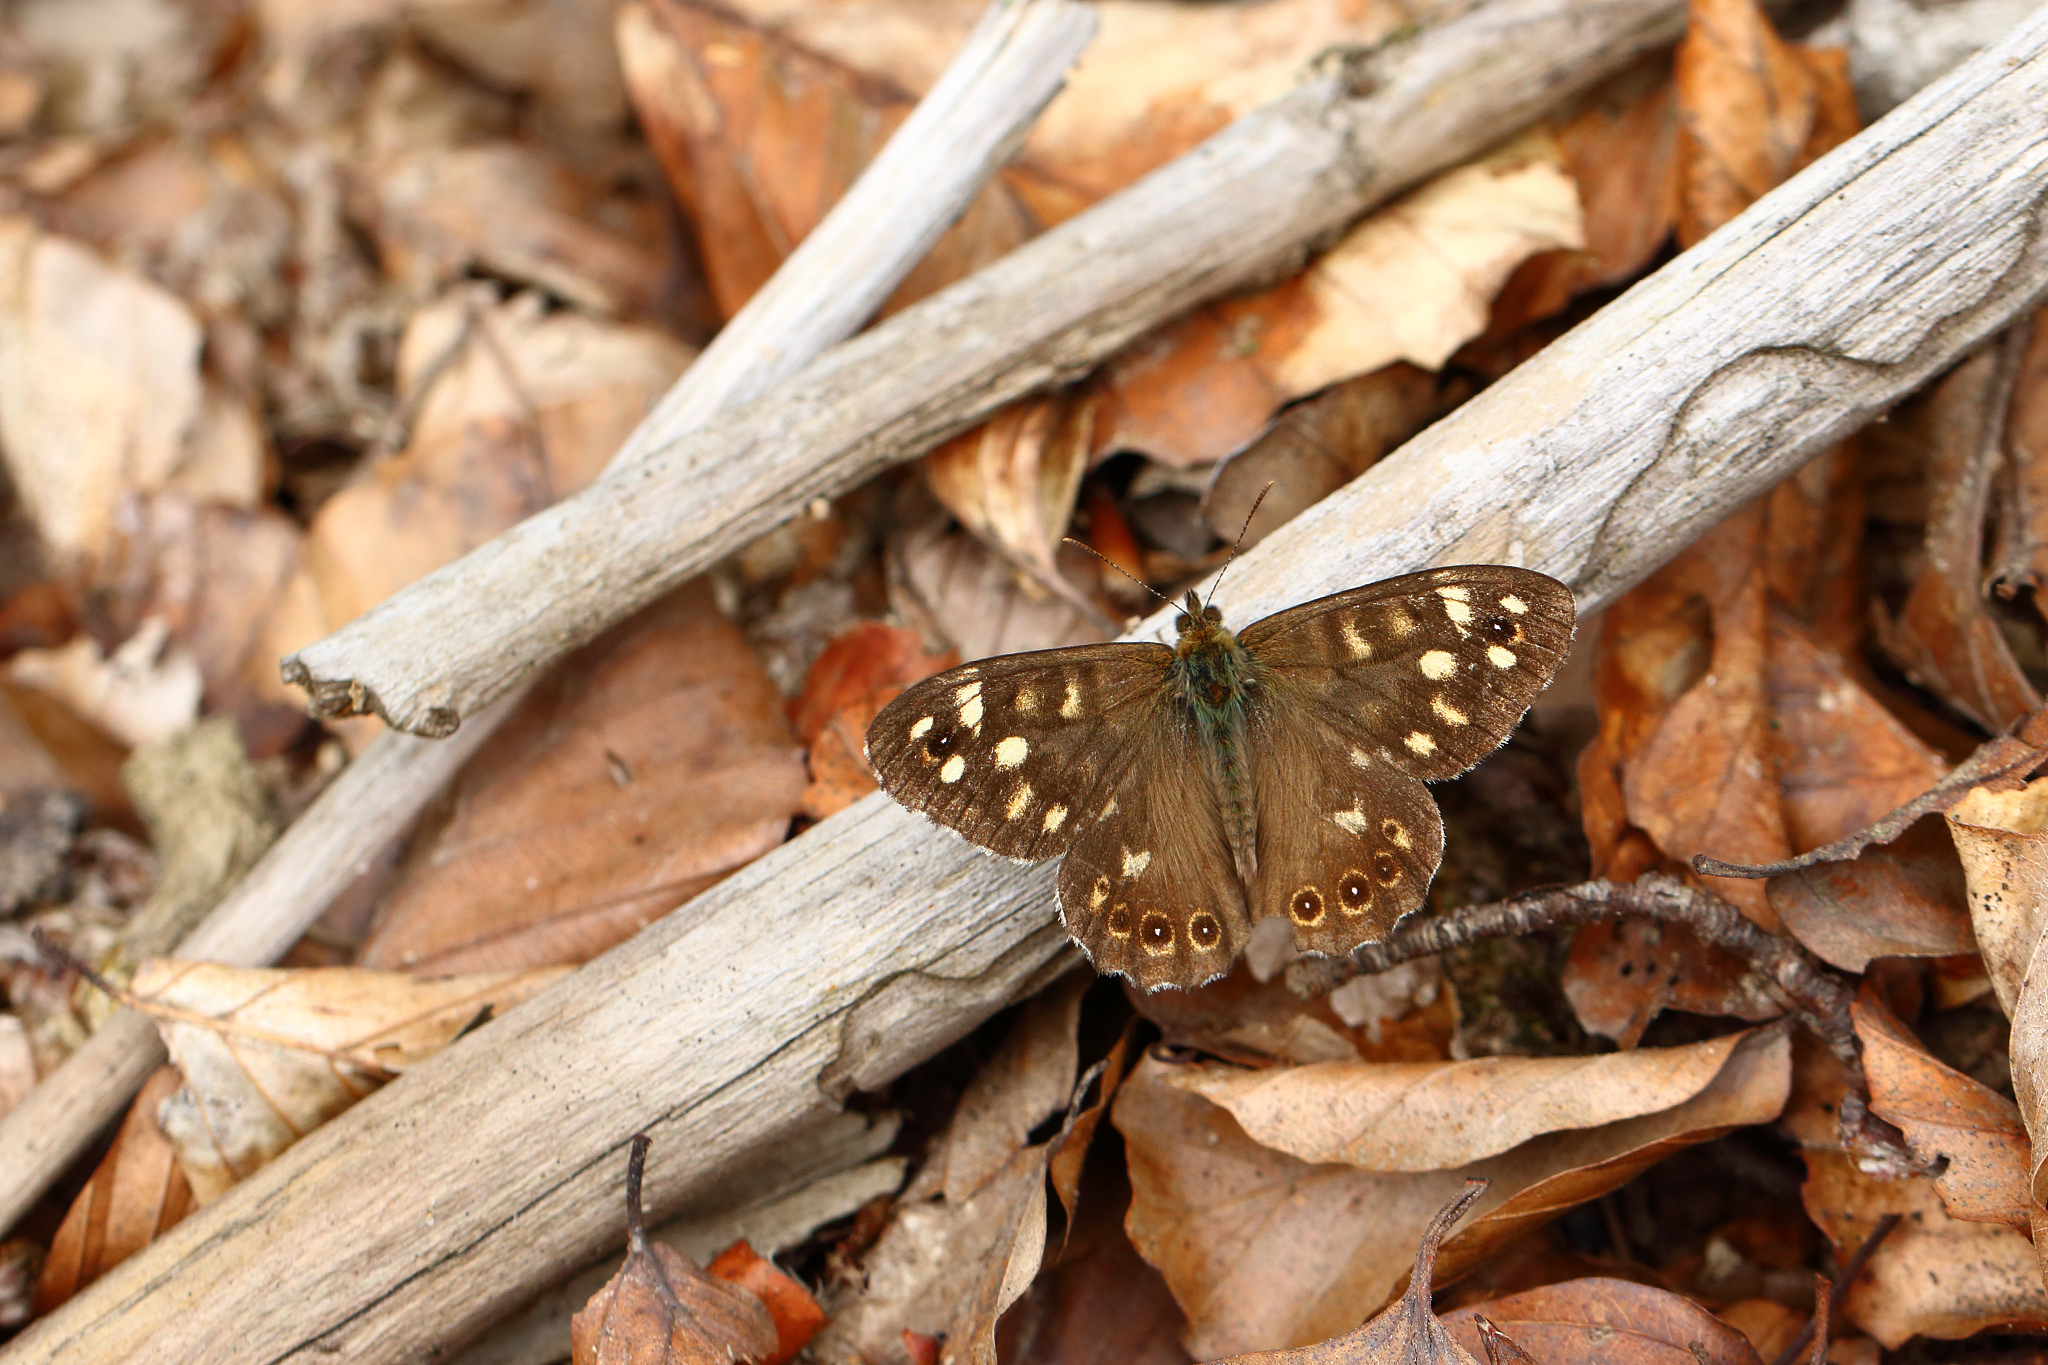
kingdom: Animalia
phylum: Arthropoda
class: Insecta
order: Lepidoptera
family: Nymphalidae
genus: Pararge
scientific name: Pararge aegeria
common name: Speckled wood
